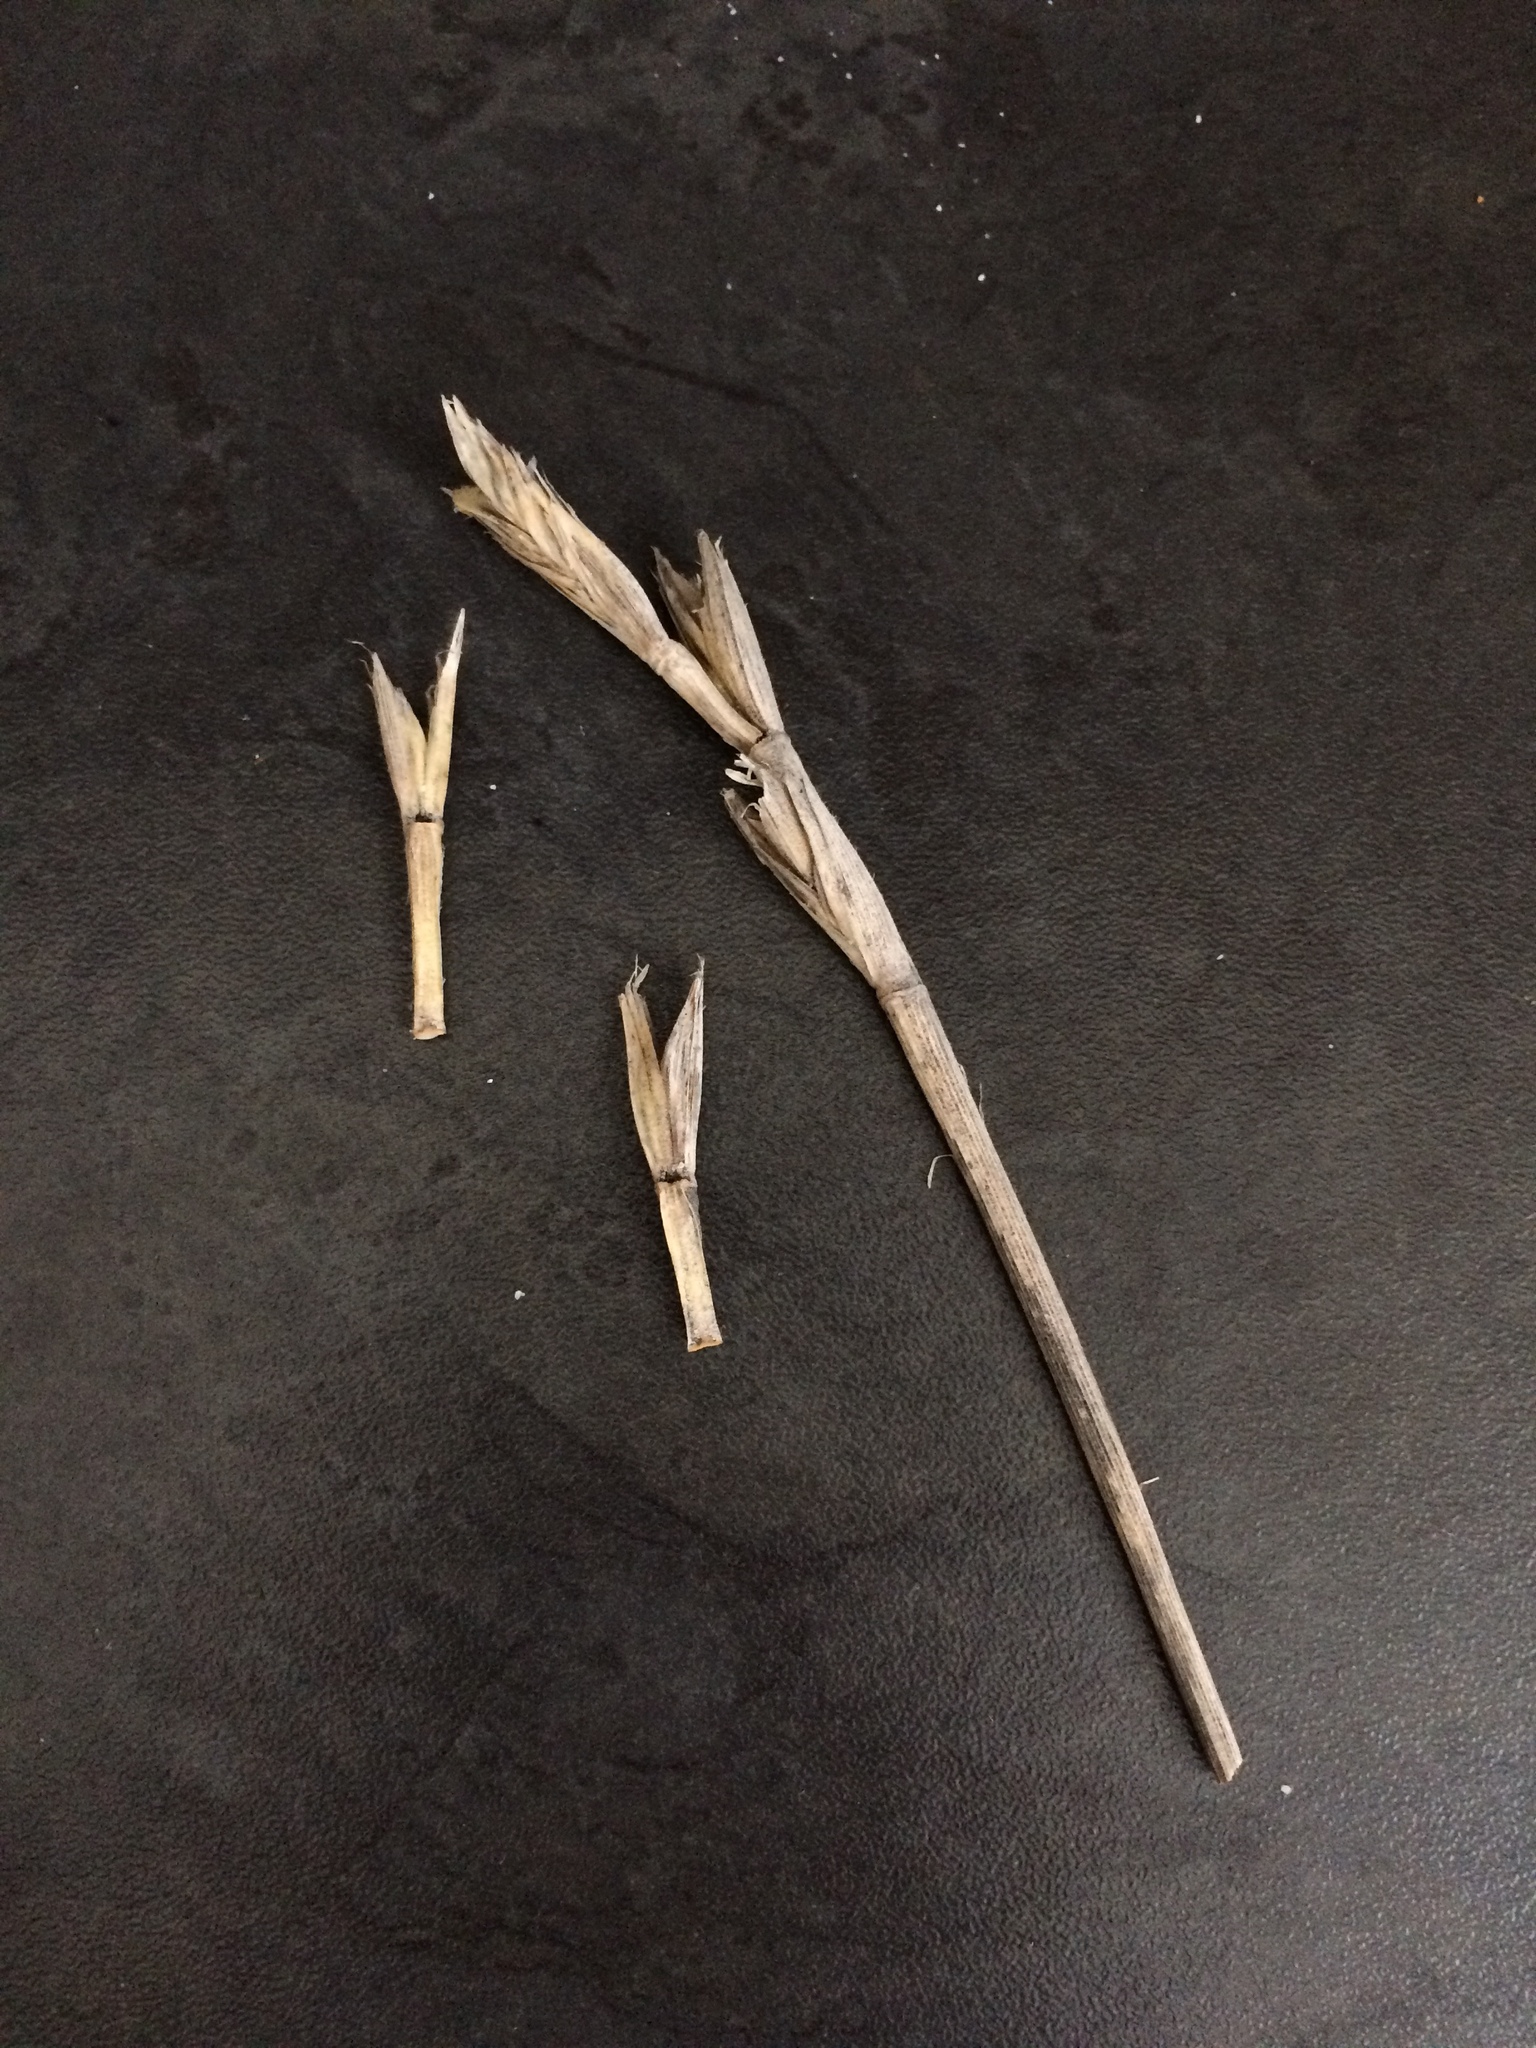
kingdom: Plantae
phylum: Tracheophyta
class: Liliopsida
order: Poales
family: Poaceae
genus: Thinopyrum
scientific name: Thinopyrum distichum
